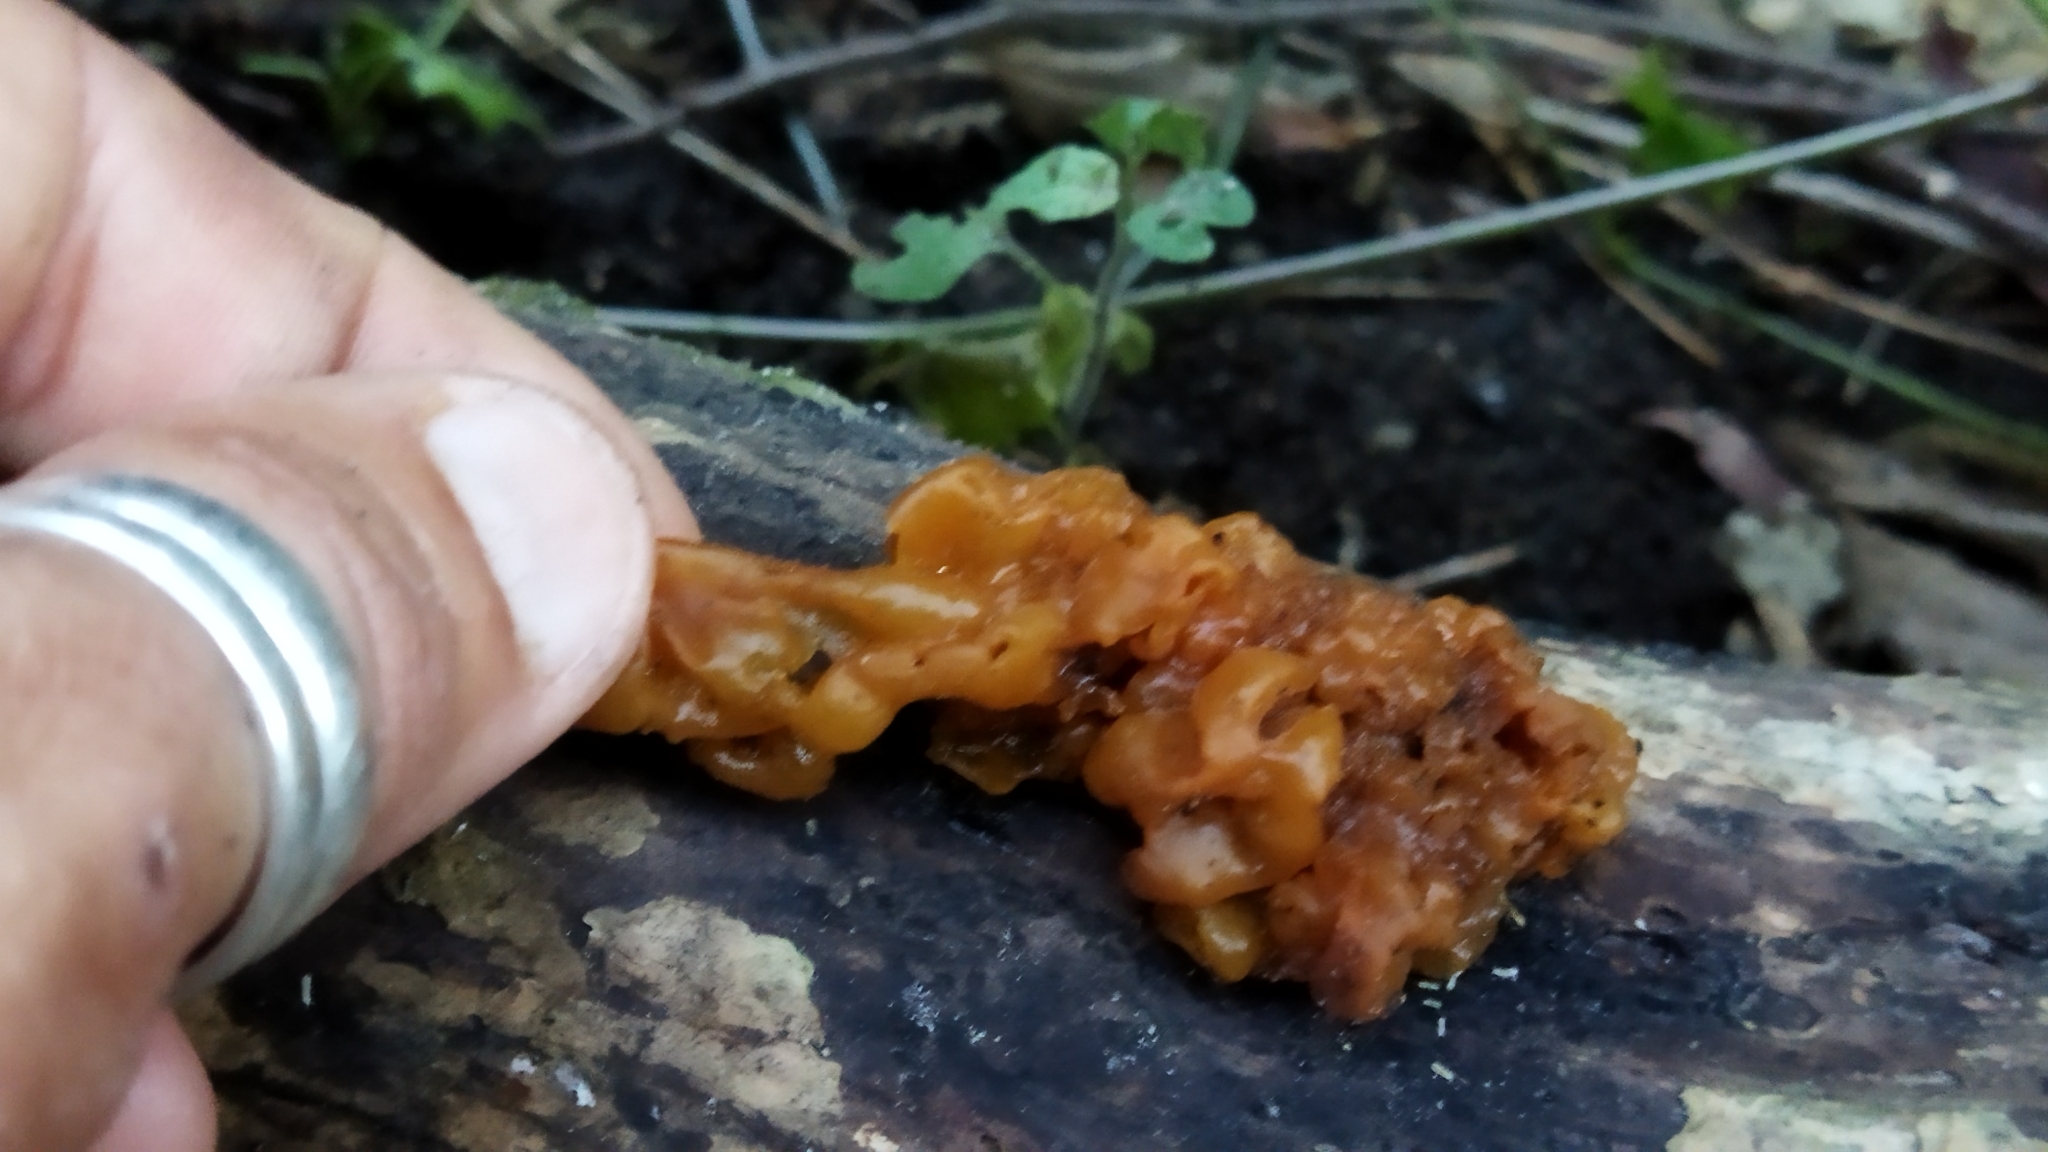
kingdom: Fungi
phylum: Basidiomycota
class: Tremellomycetes
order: Tremellales
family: Tremellaceae
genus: Tremella
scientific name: Tremella mesenterica
